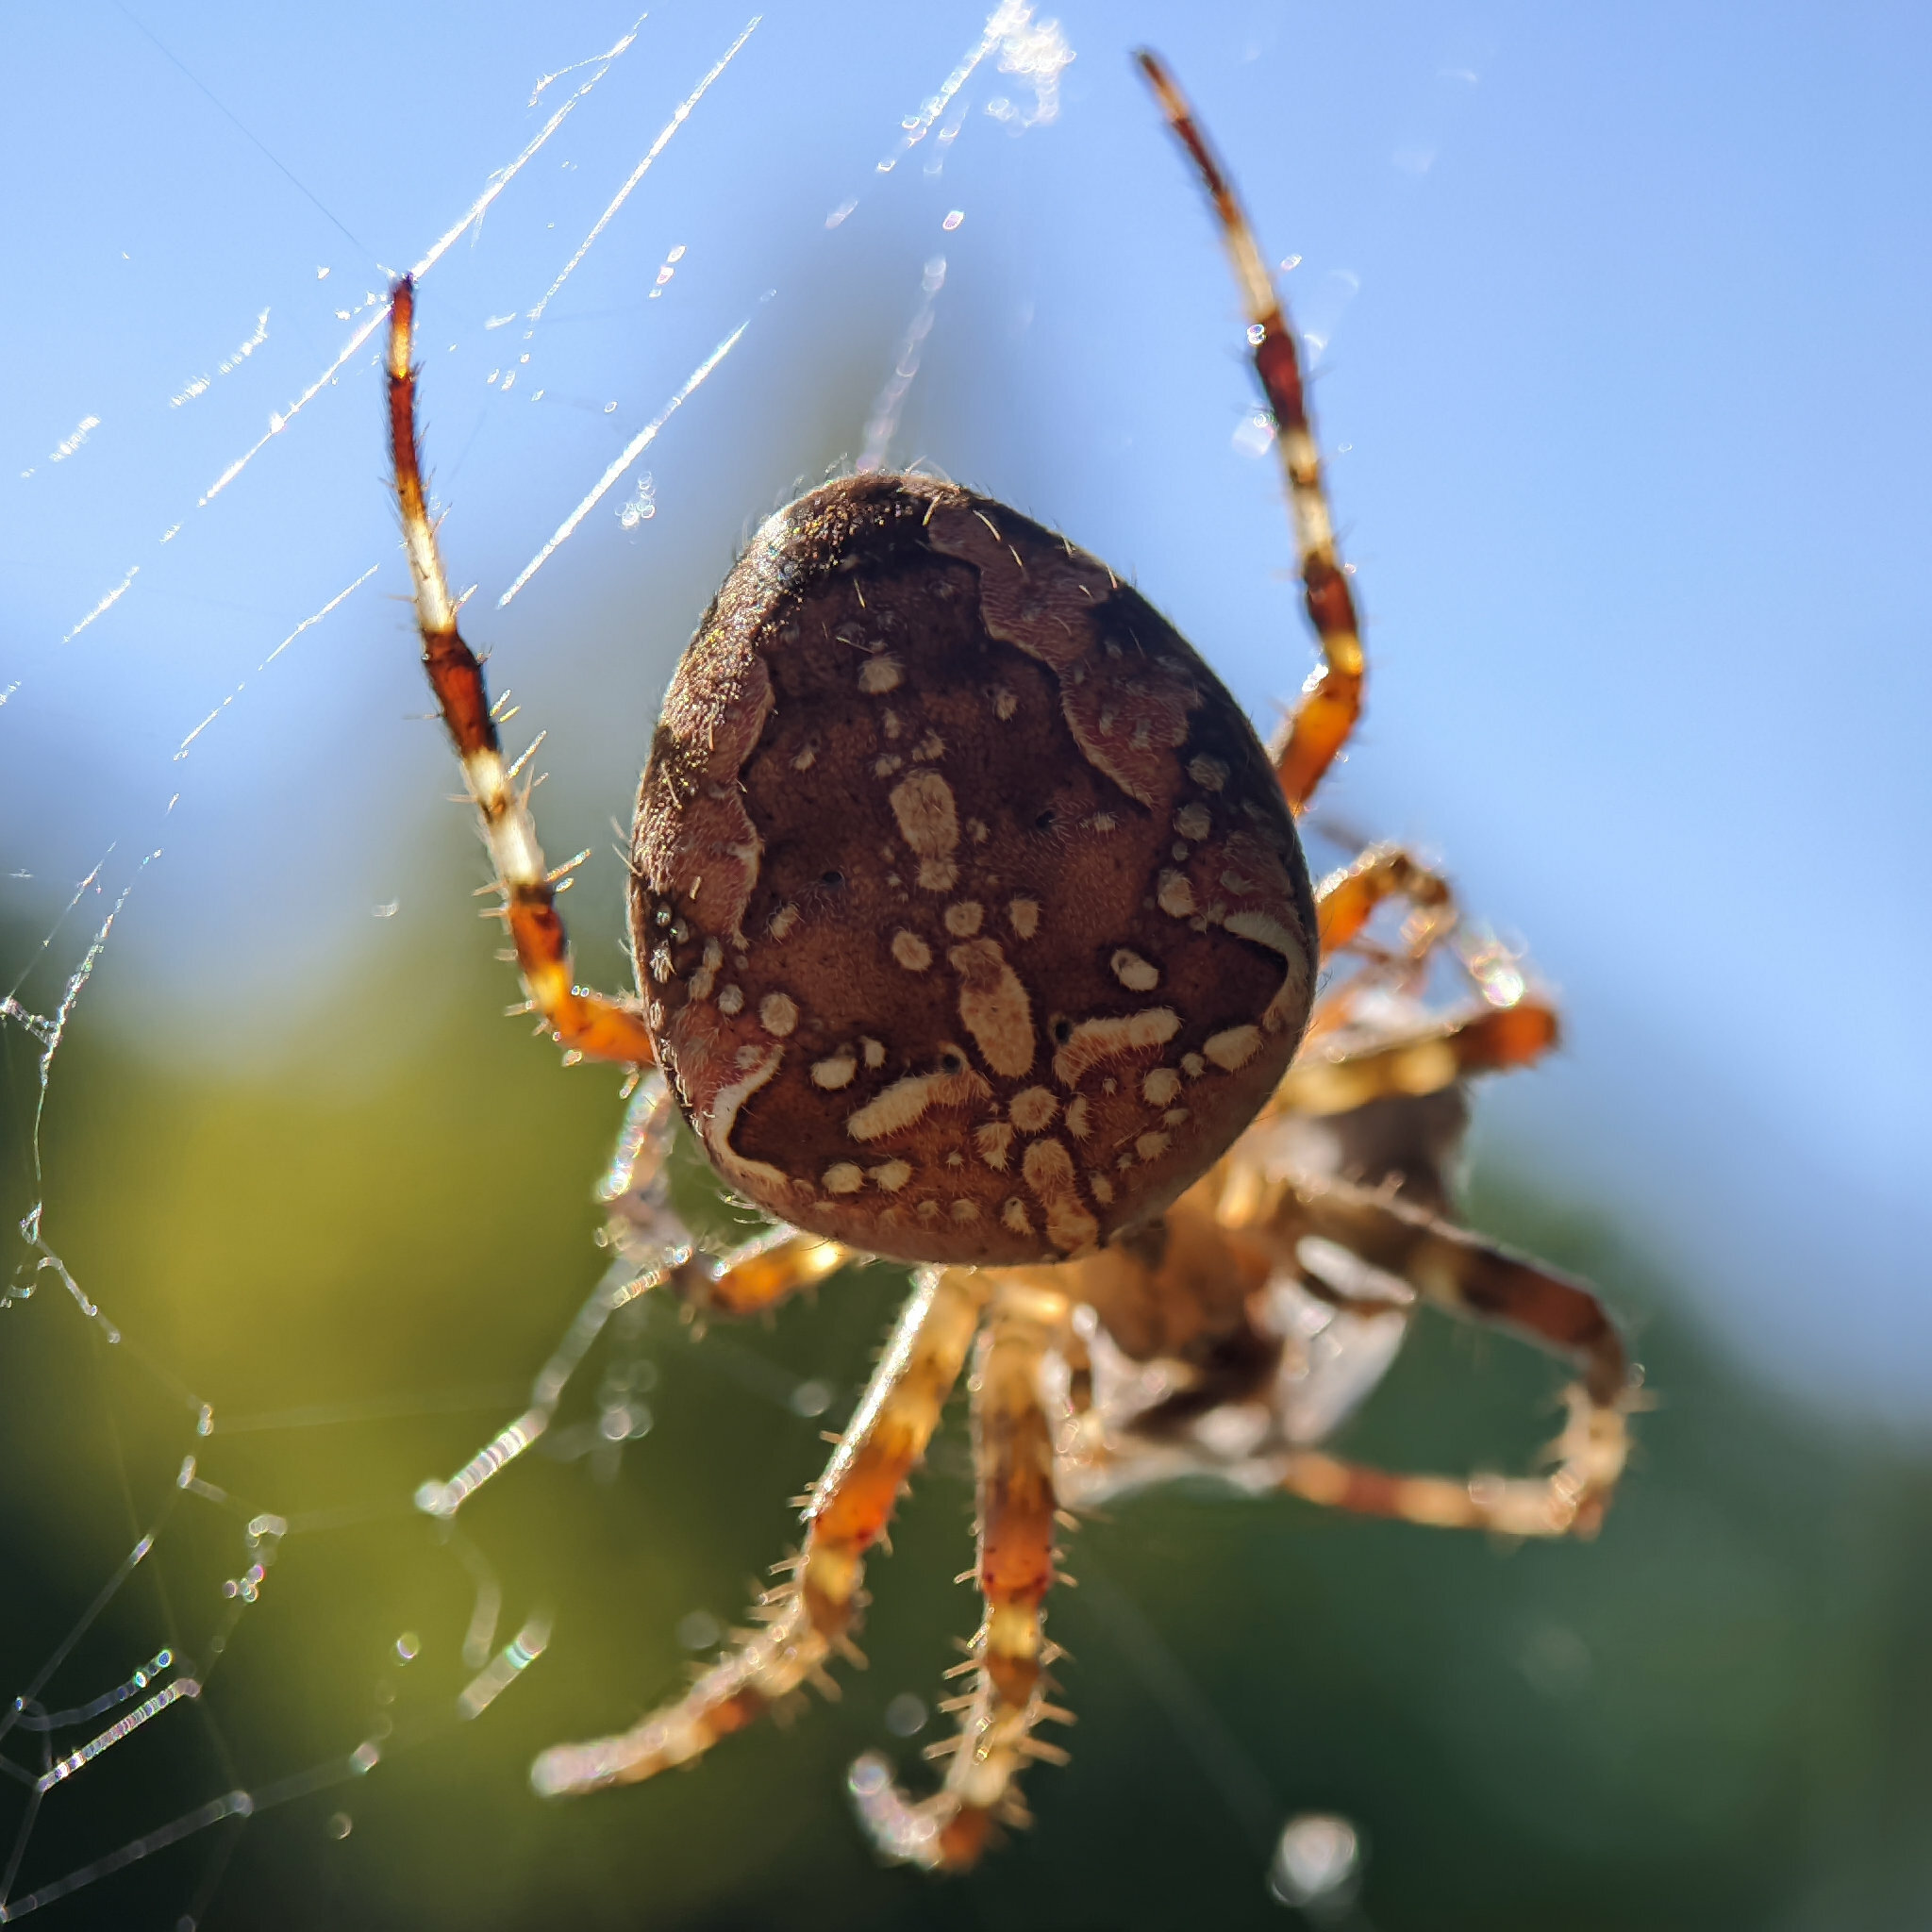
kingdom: Animalia
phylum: Arthropoda
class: Arachnida
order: Araneae
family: Araneidae
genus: Araneus
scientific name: Araneus diadematus
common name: Cross orbweaver
